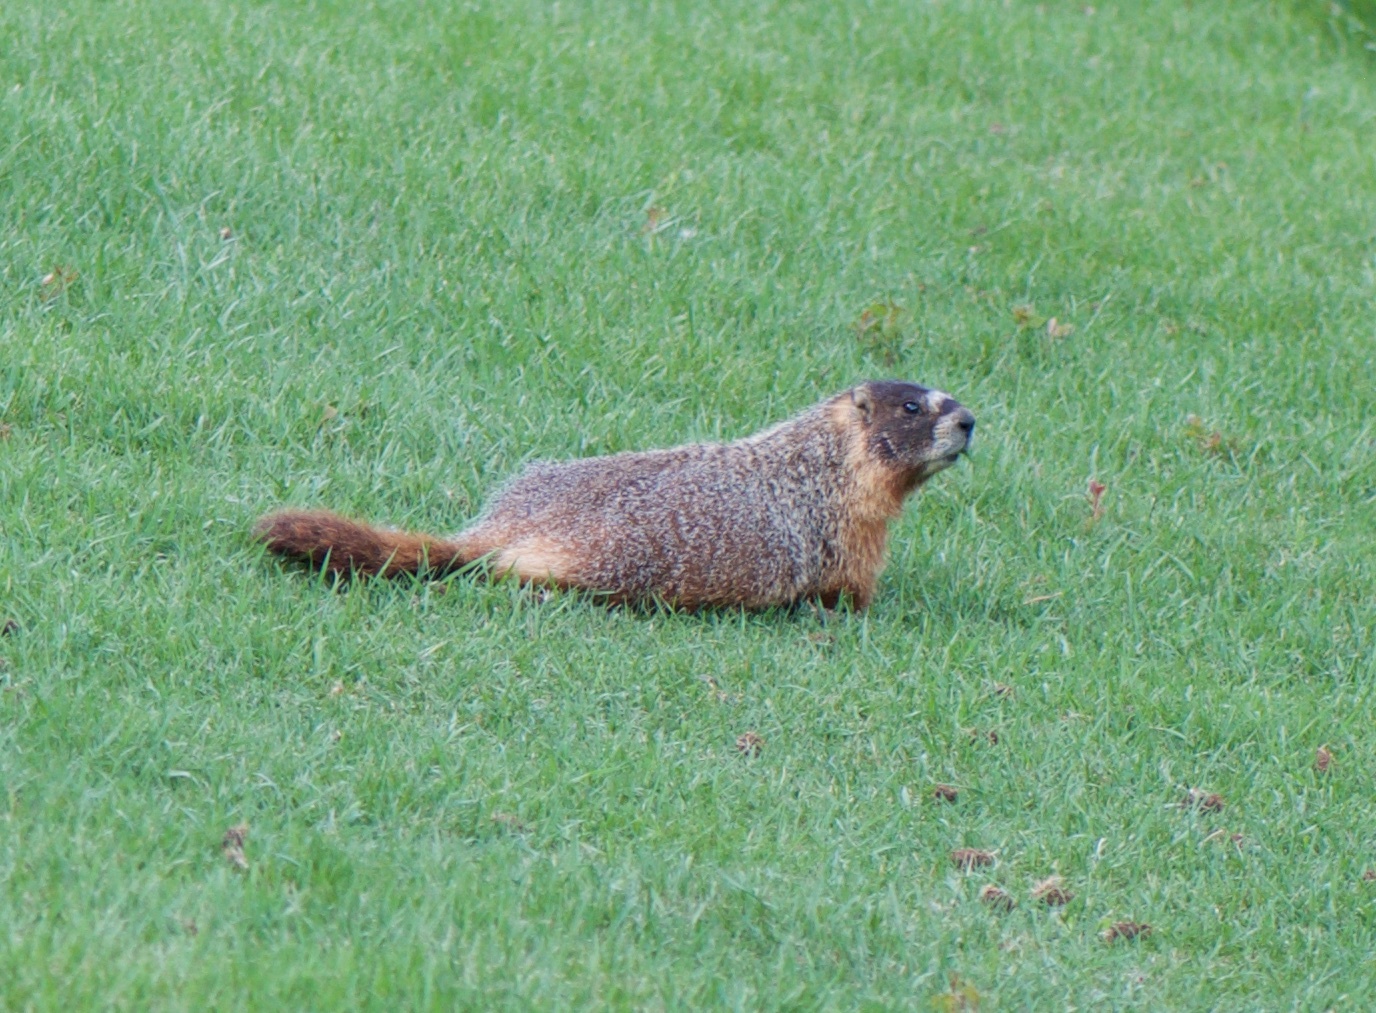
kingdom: Animalia
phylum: Chordata
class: Mammalia
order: Rodentia
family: Sciuridae
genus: Marmota
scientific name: Marmota flaviventris
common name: Yellow-bellied marmot
